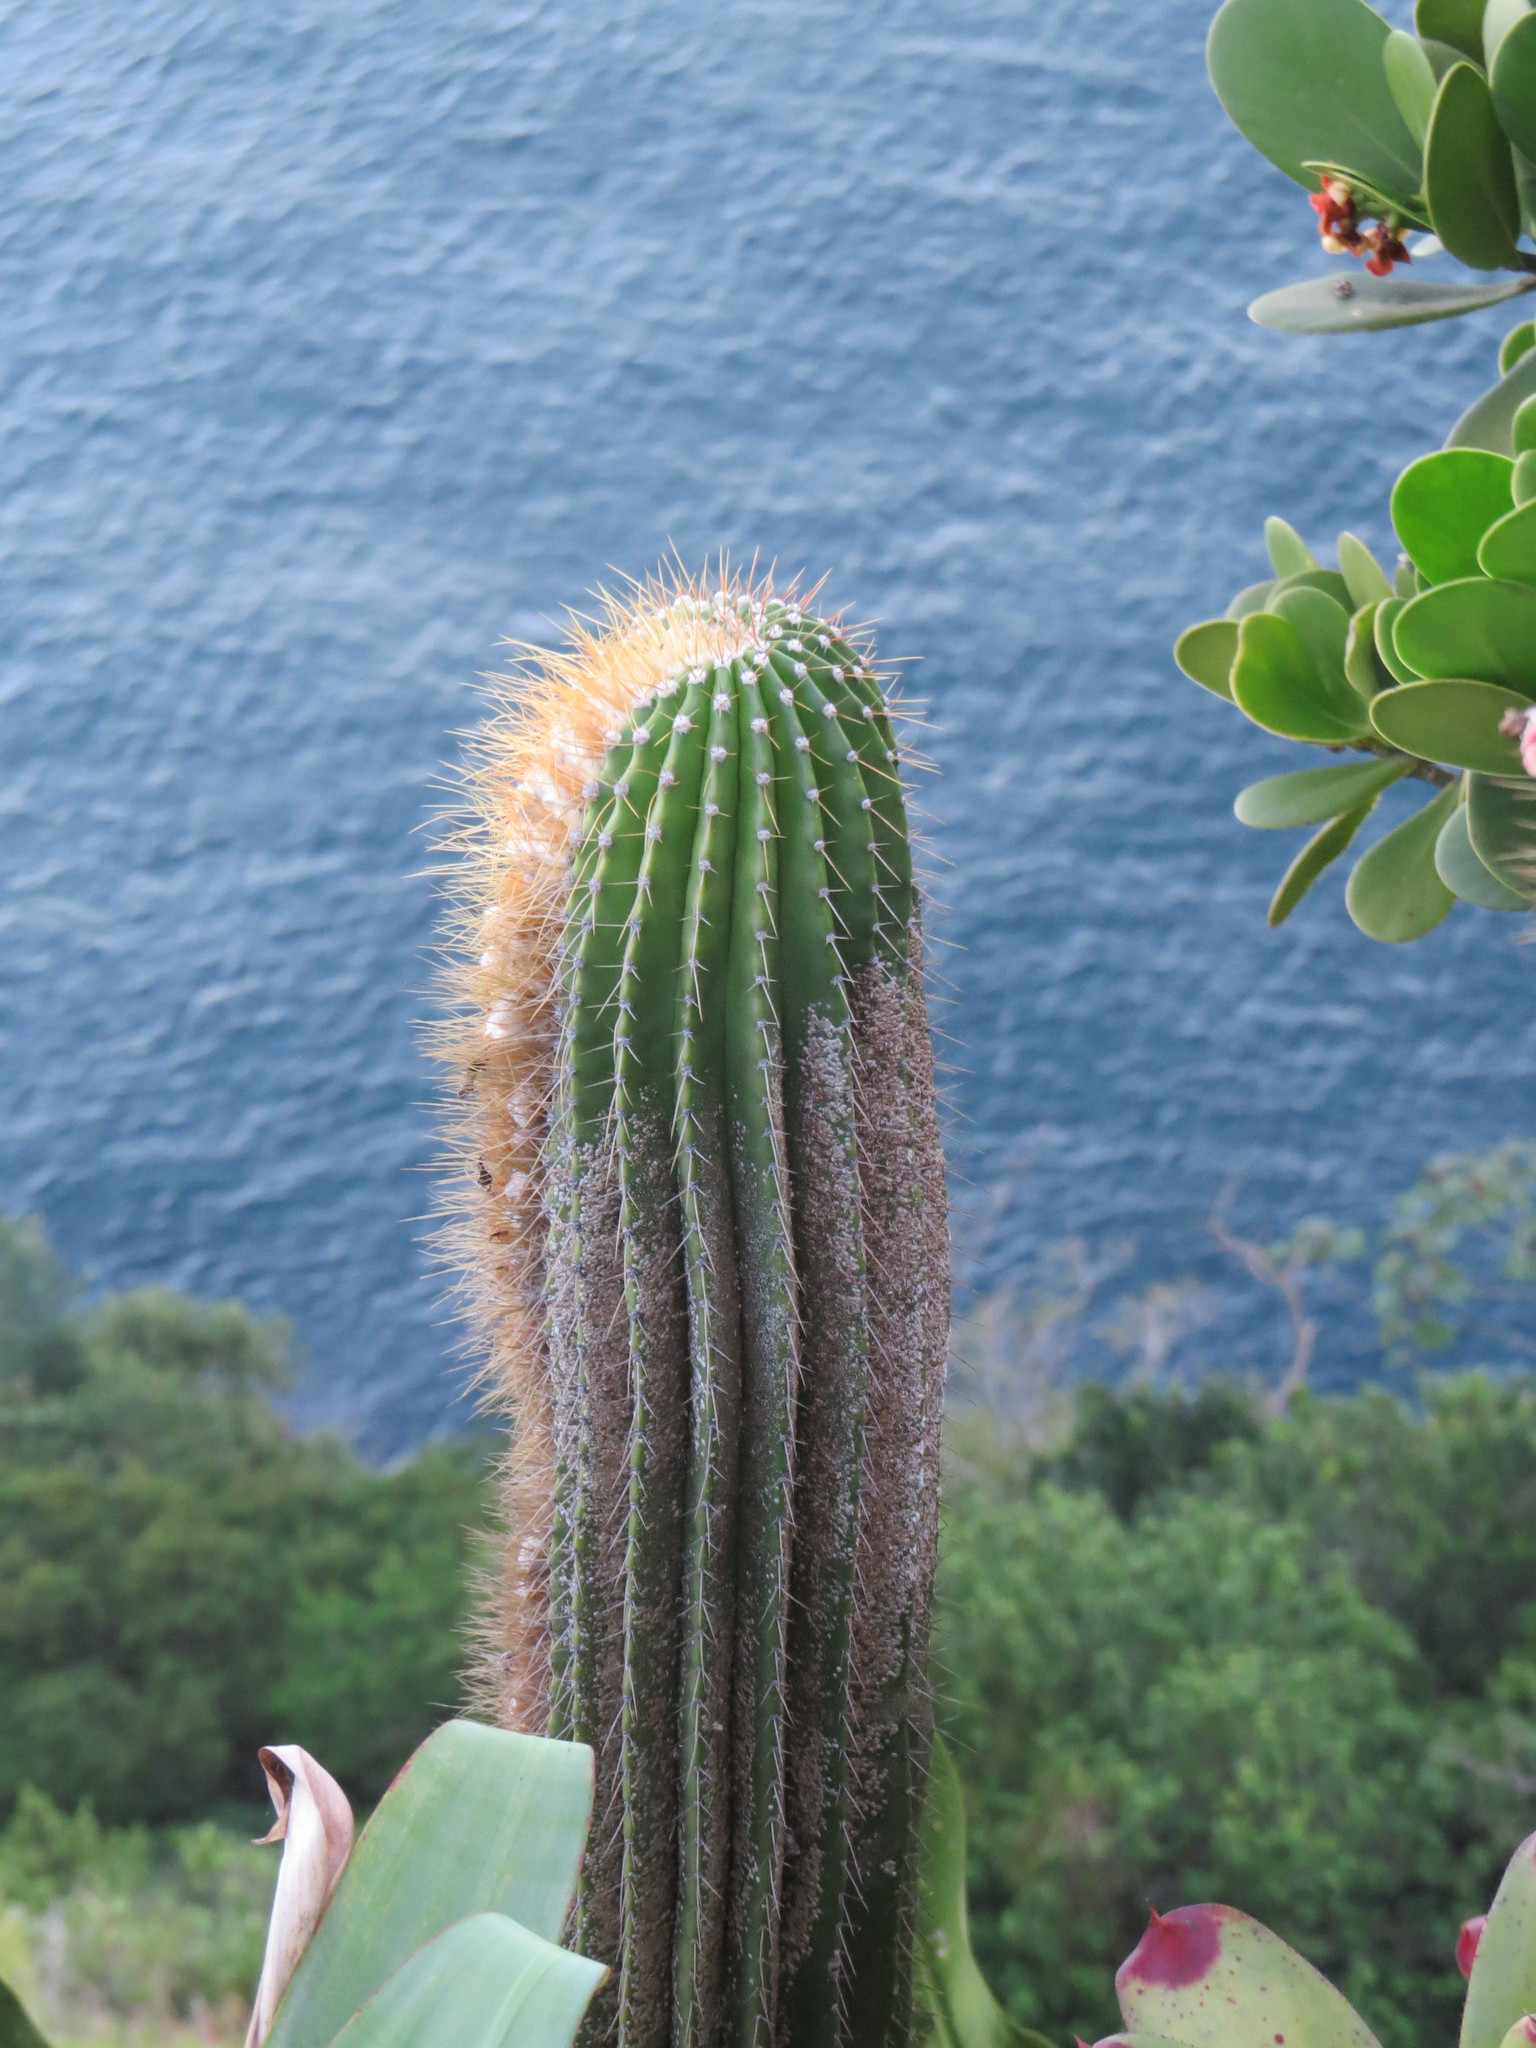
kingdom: Plantae
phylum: Tracheophyta
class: Magnoliopsida
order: Caryophyllales
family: Cactaceae
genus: Coleocephalocereus
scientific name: Coleocephalocereus fluminensis
